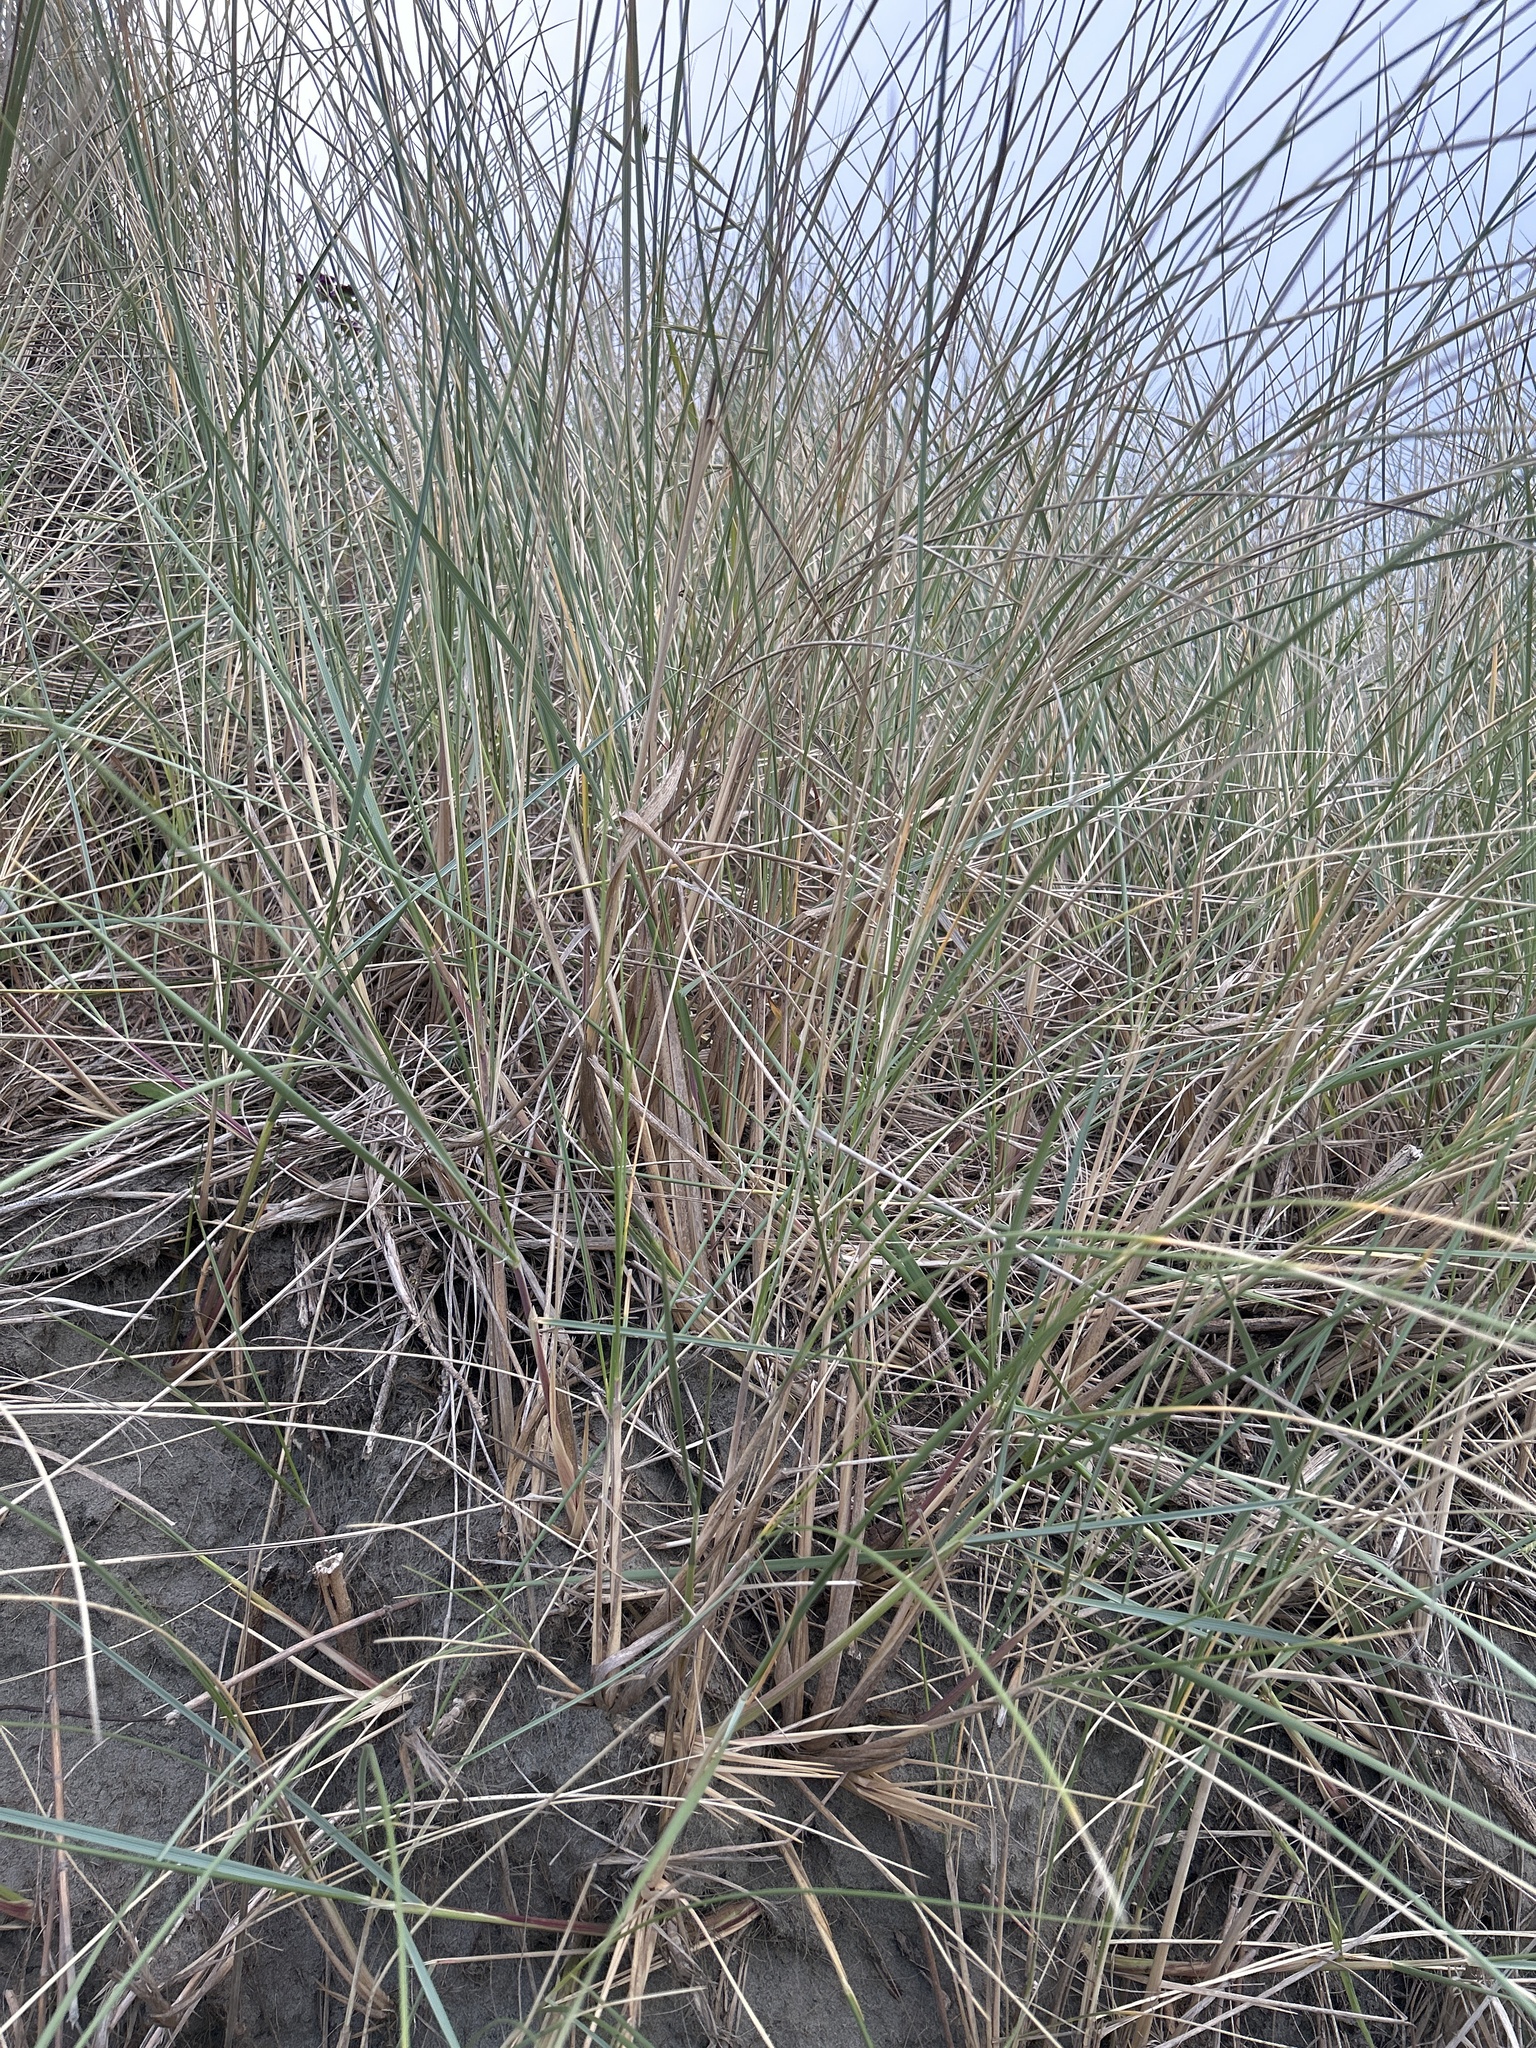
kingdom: Plantae
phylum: Tracheophyta
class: Liliopsida
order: Poales
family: Poaceae
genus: Calamagrostis
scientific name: Calamagrostis arenaria
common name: European beachgrass
